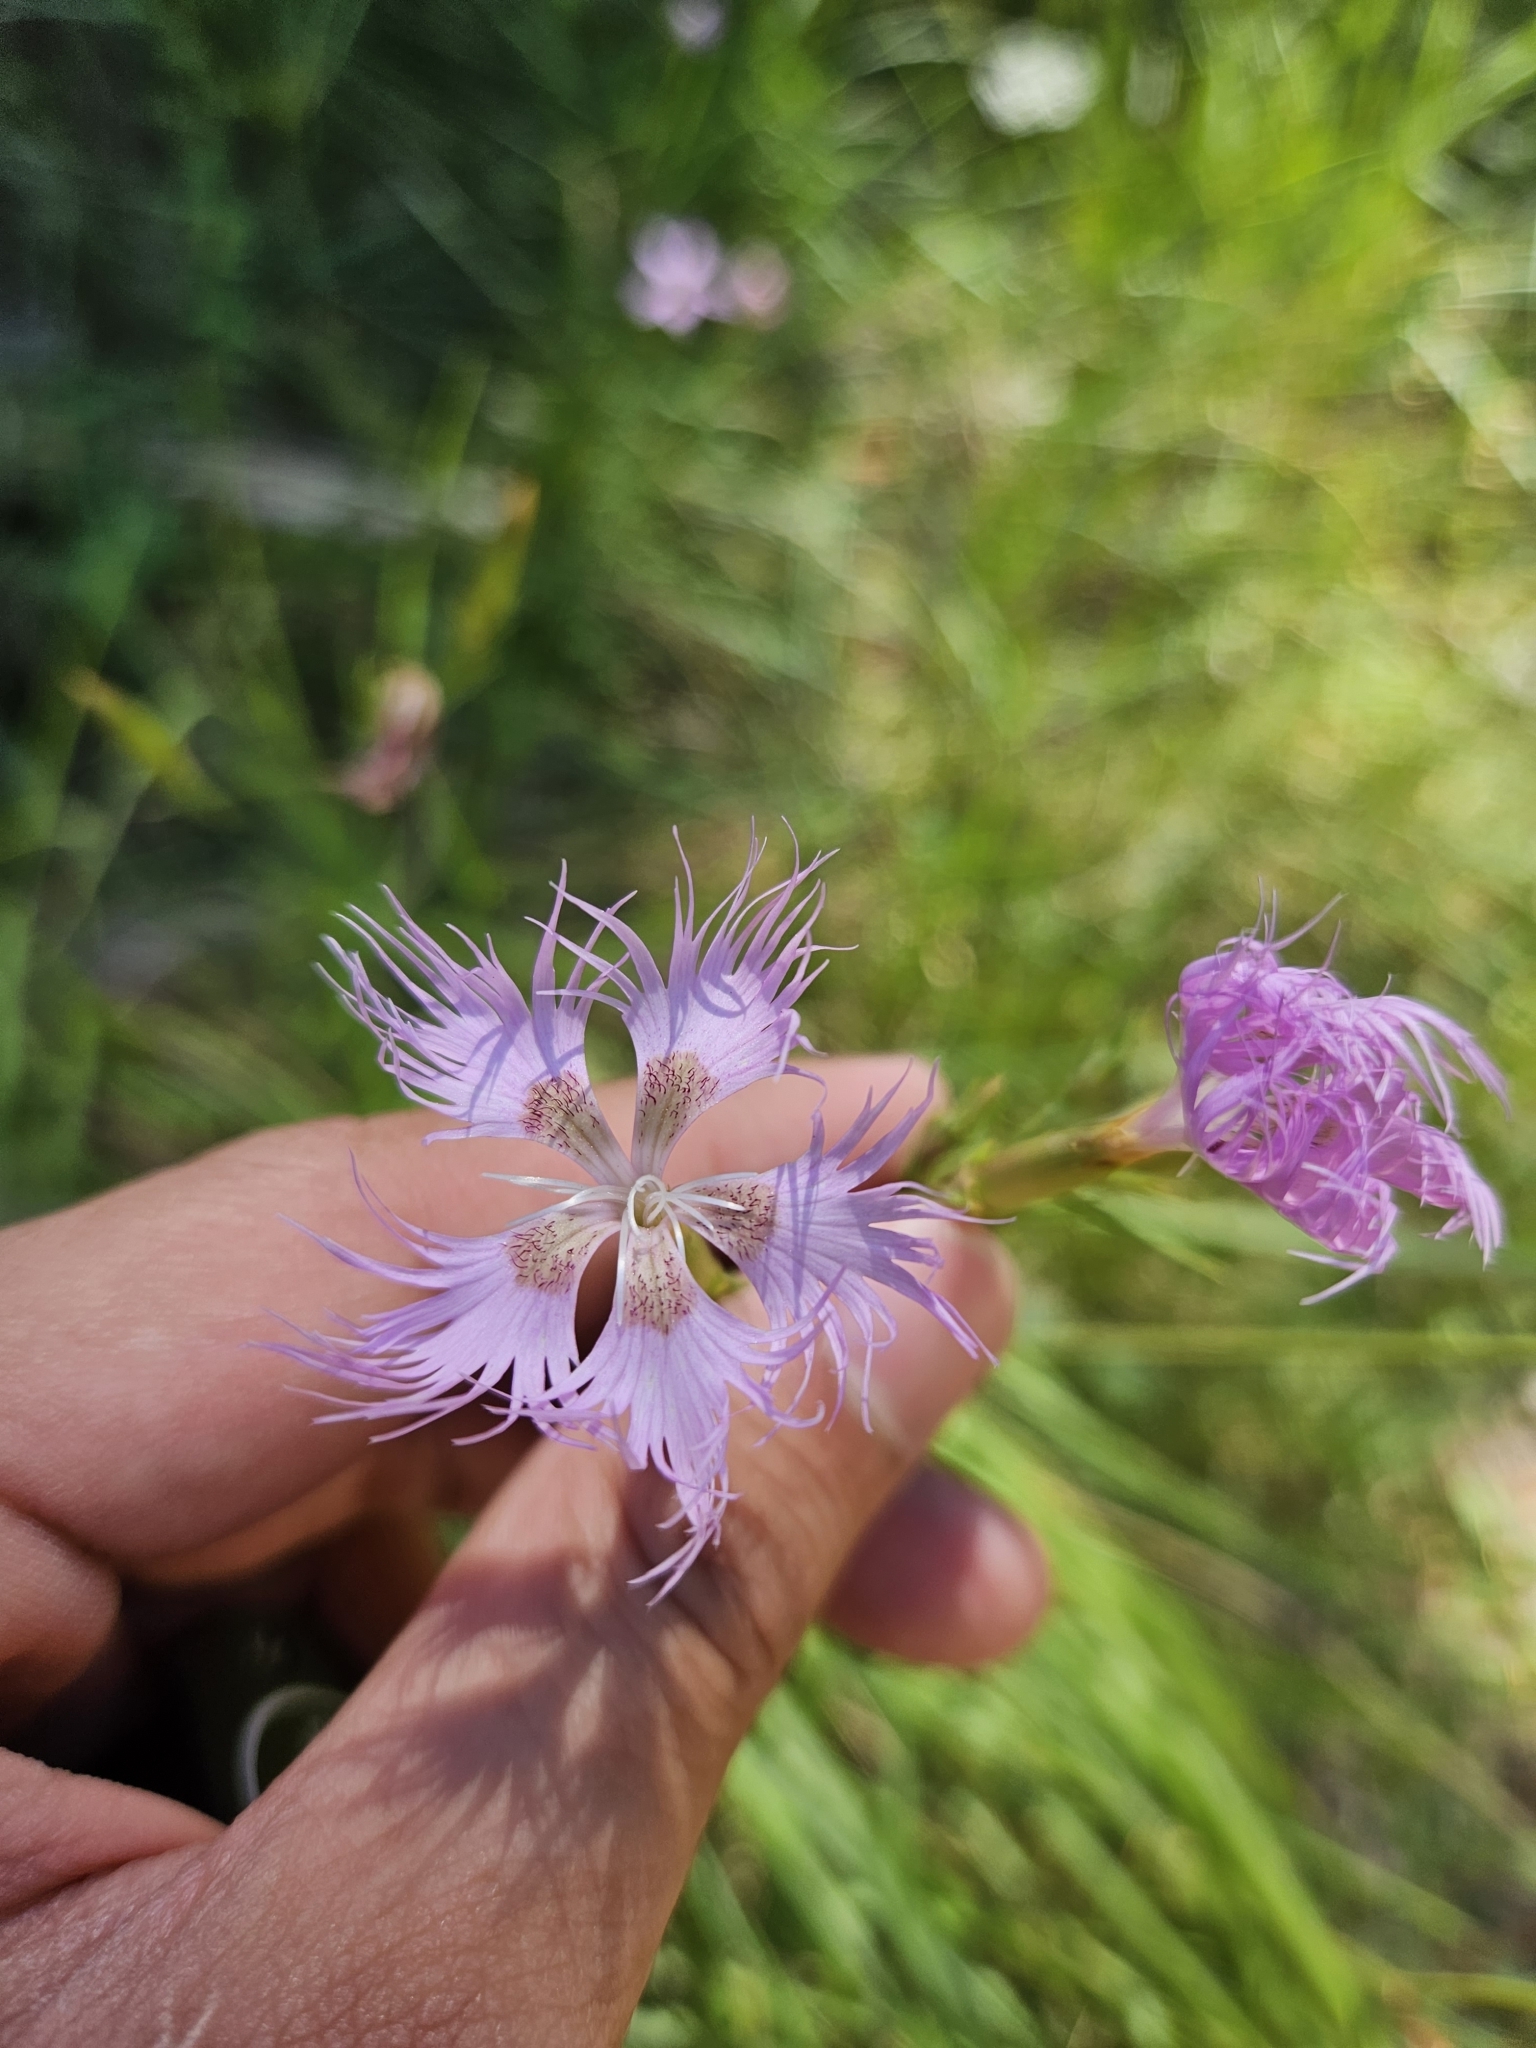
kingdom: Plantae
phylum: Tracheophyta
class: Magnoliopsida
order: Caryophyllales
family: Caryophyllaceae
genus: Dianthus
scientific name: Dianthus hyssopifolius
